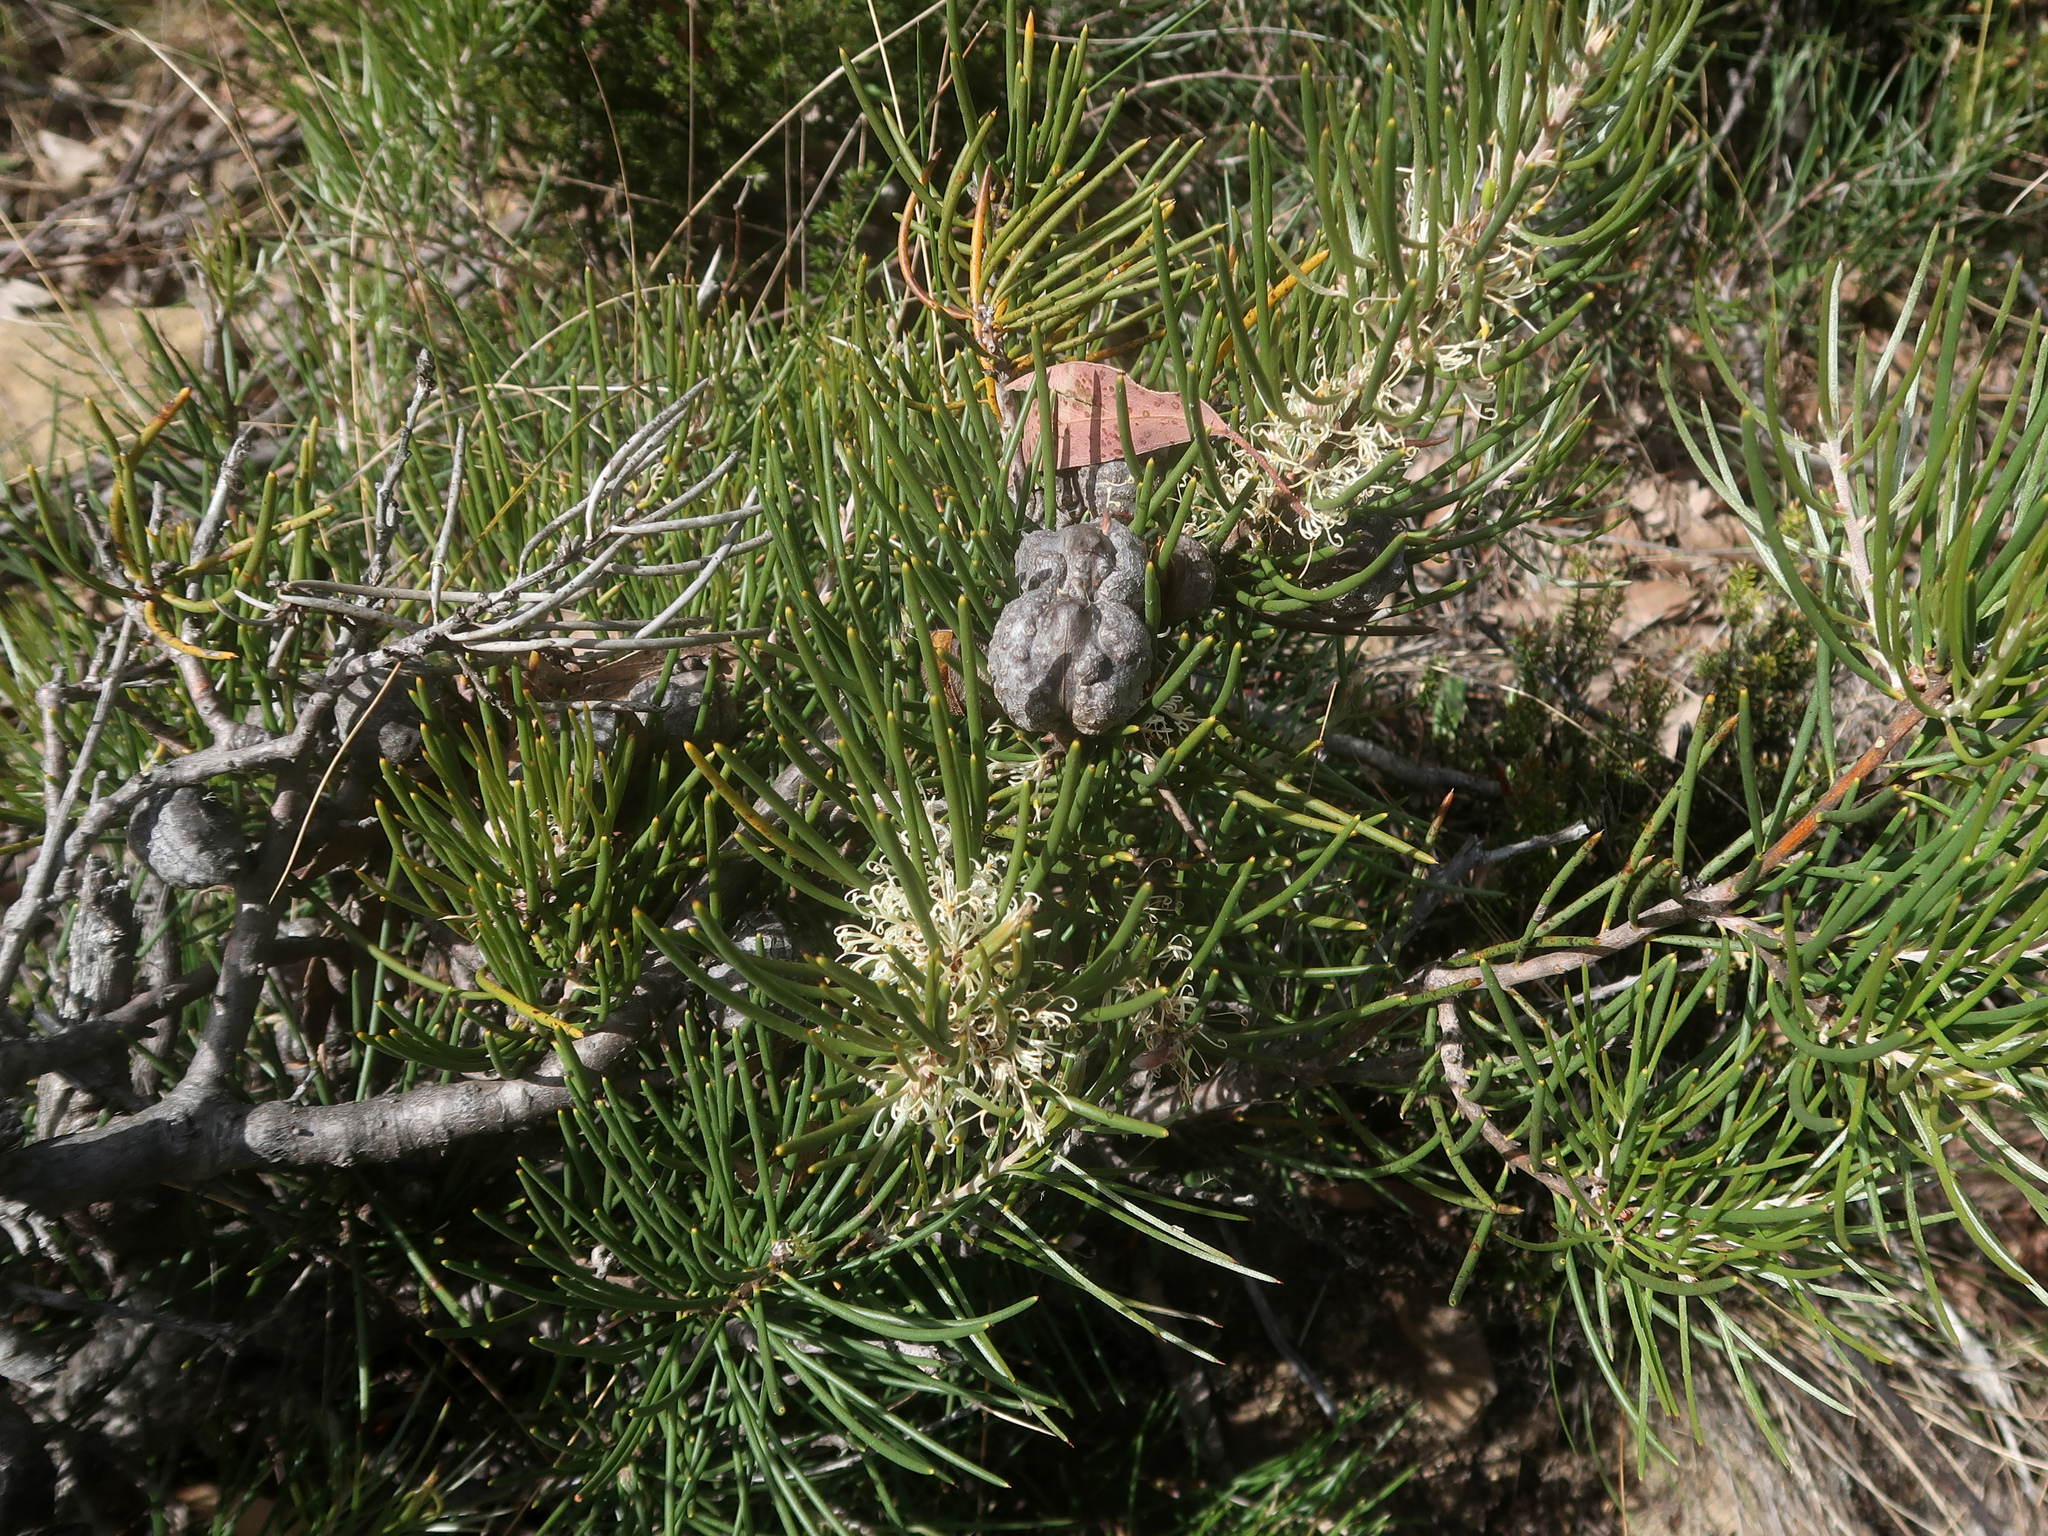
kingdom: Plantae
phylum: Tracheophyta
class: Magnoliopsida
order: Proteales
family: Proteaceae
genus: Hakea
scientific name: Hakea lissosperma
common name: Mountain needlewood
